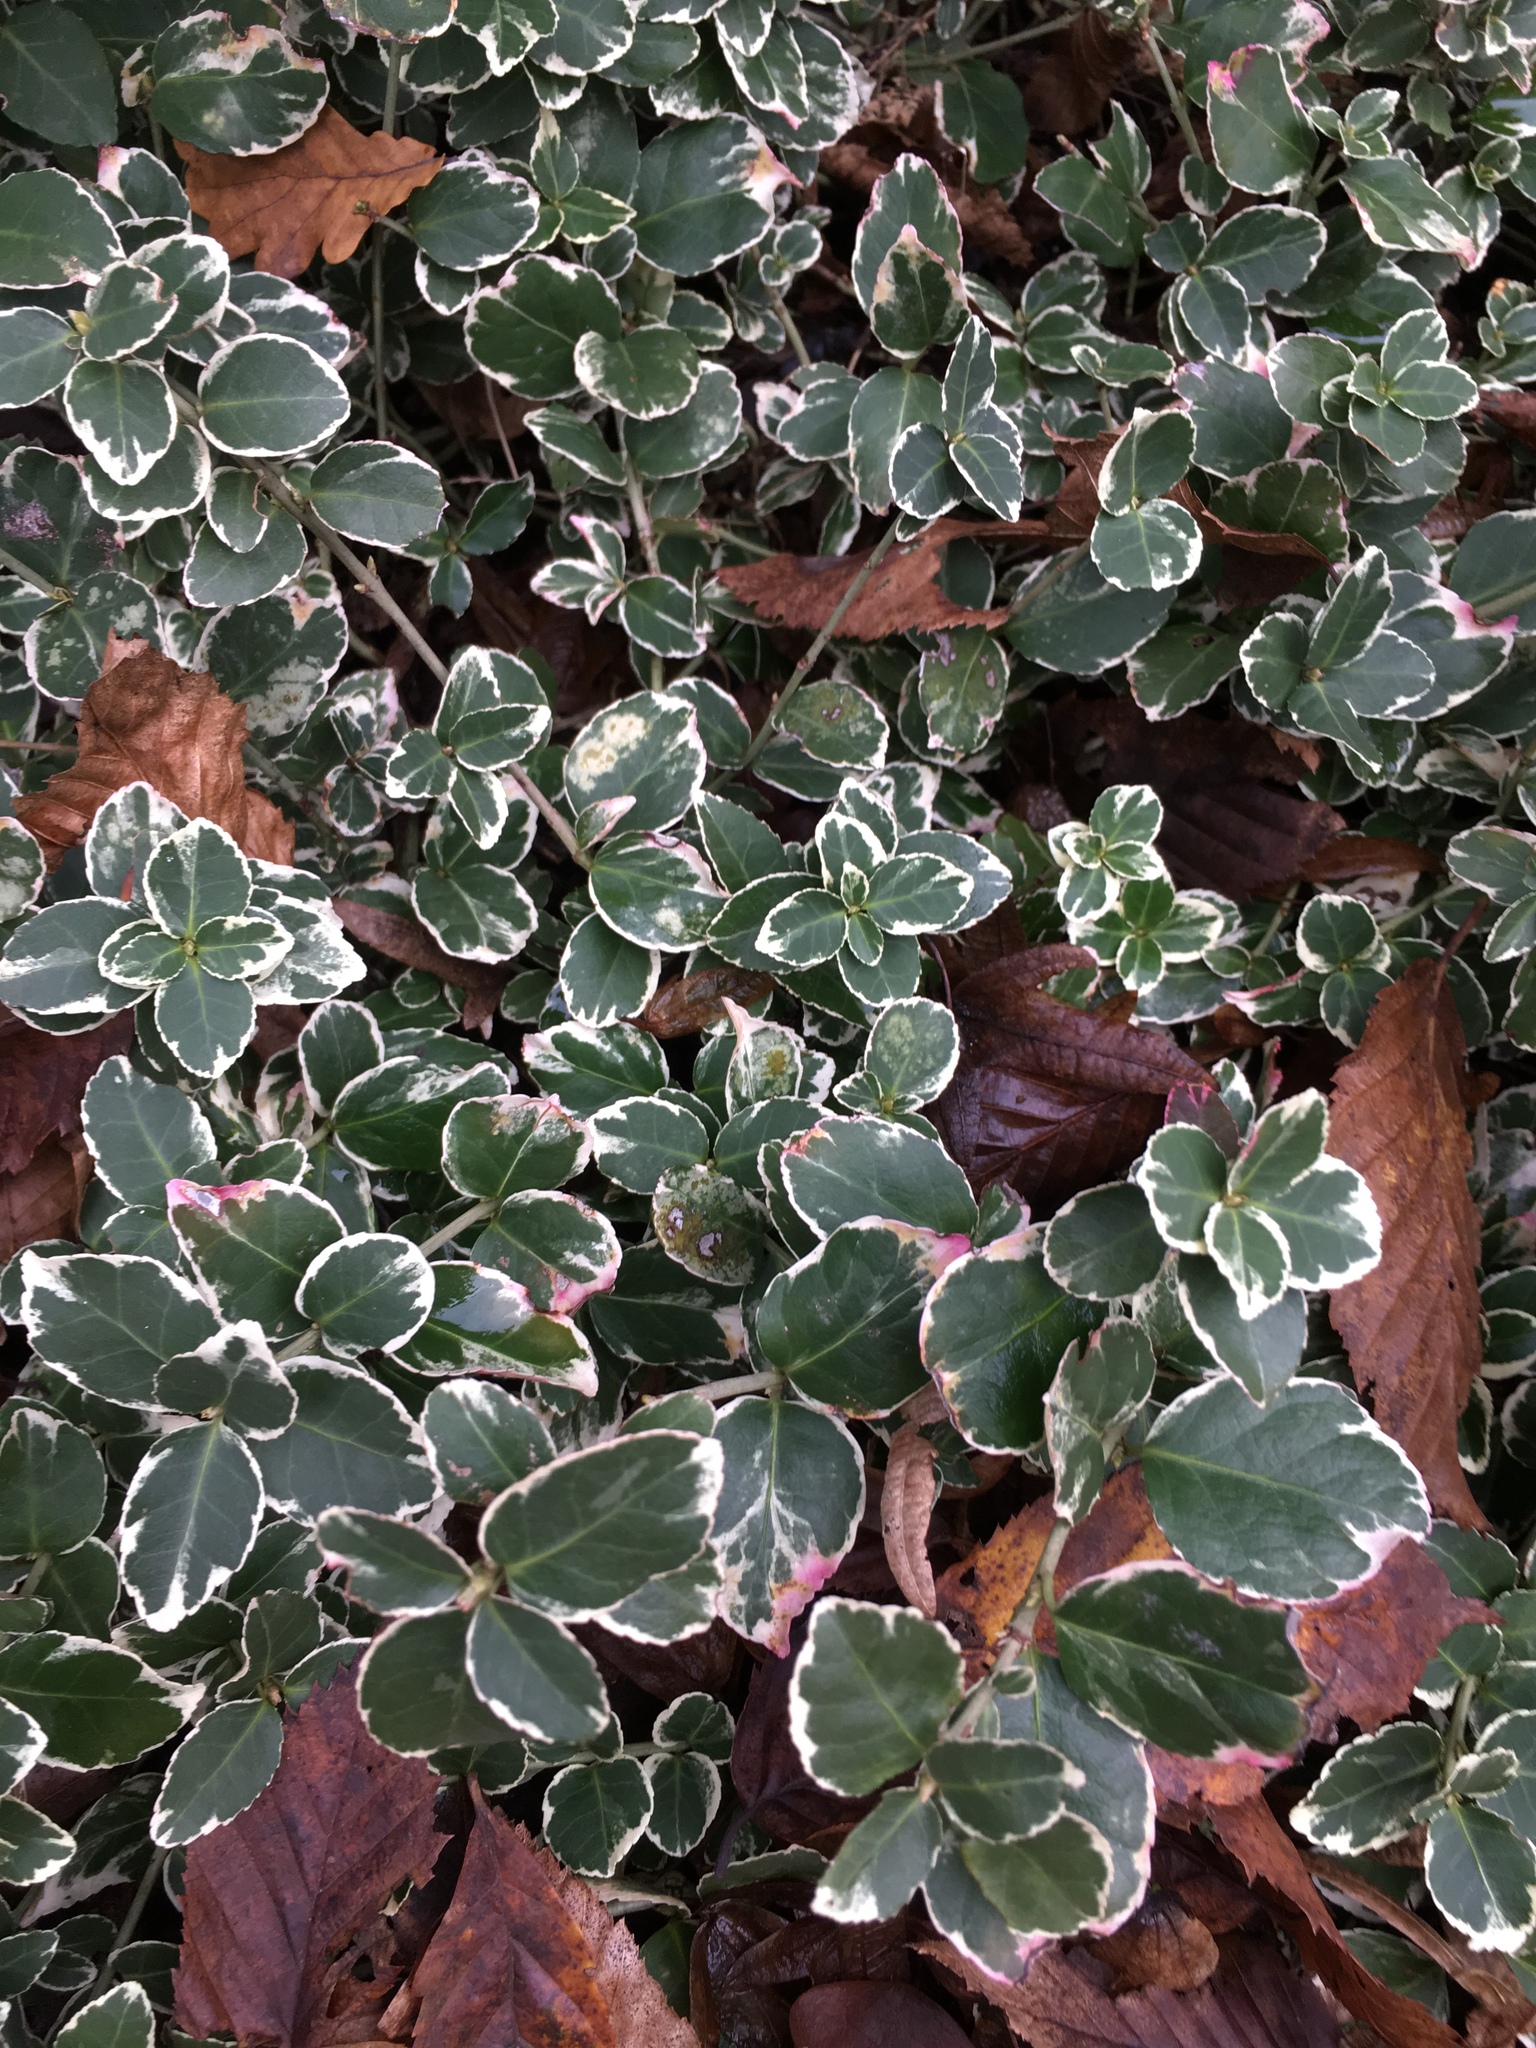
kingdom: Plantae
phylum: Tracheophyta
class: Magnoliopsida
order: Celastrales
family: Celastraceae
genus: Euonymus
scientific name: Euonymus fortunei
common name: Climbing euonymus
